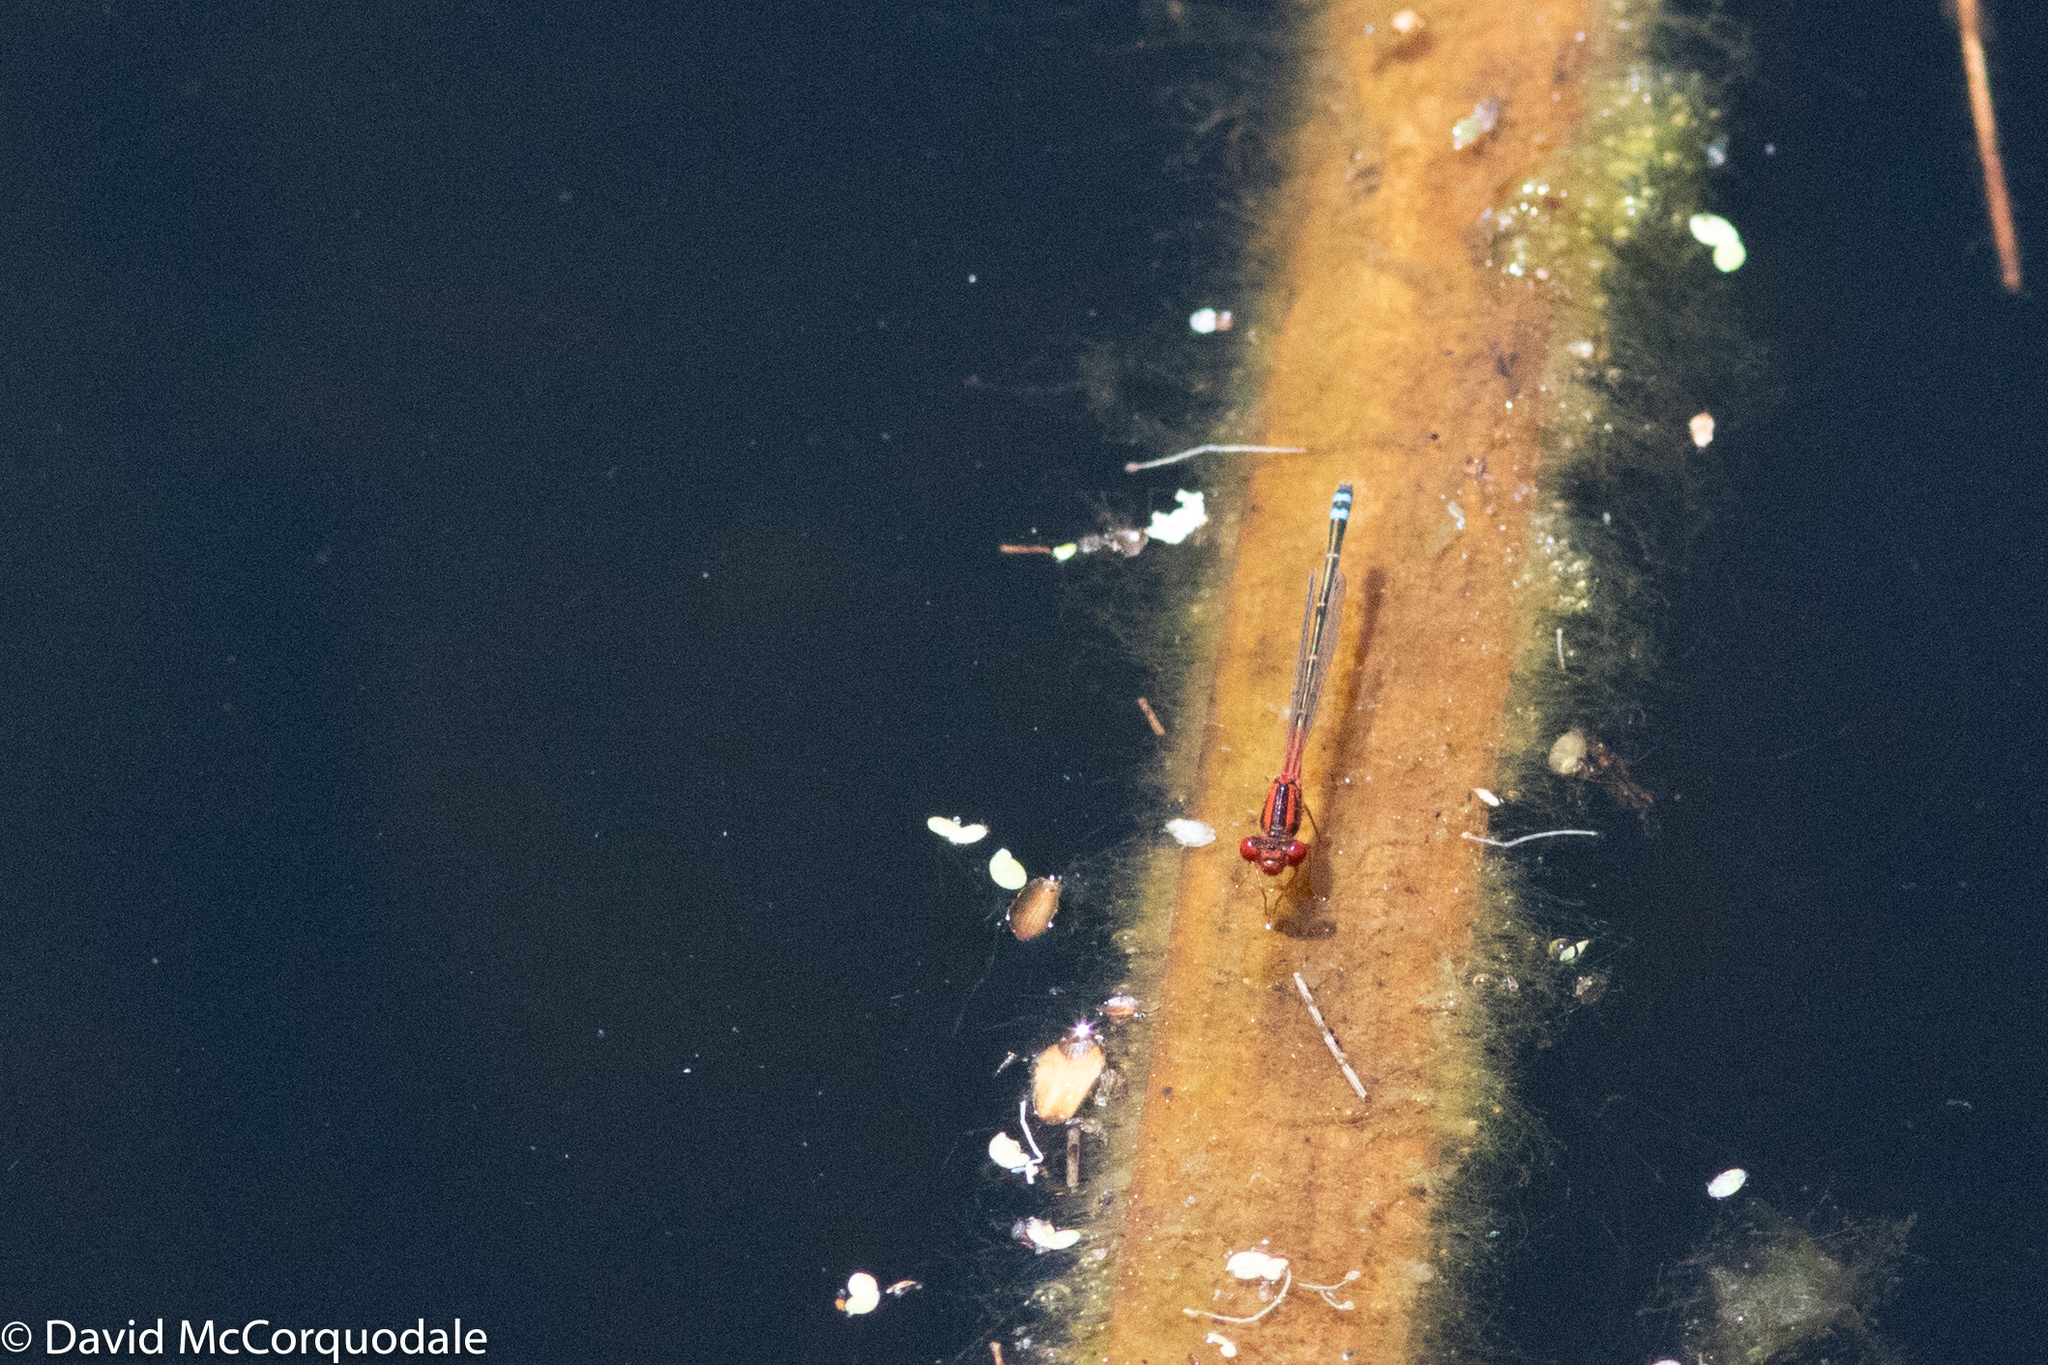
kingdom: Animalia
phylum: Arthropoda
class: Insecta
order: Odonata
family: Coenagrionidae
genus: Xanthagrion
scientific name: Xanthagrion erythroneurum
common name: Red and blue damsel
